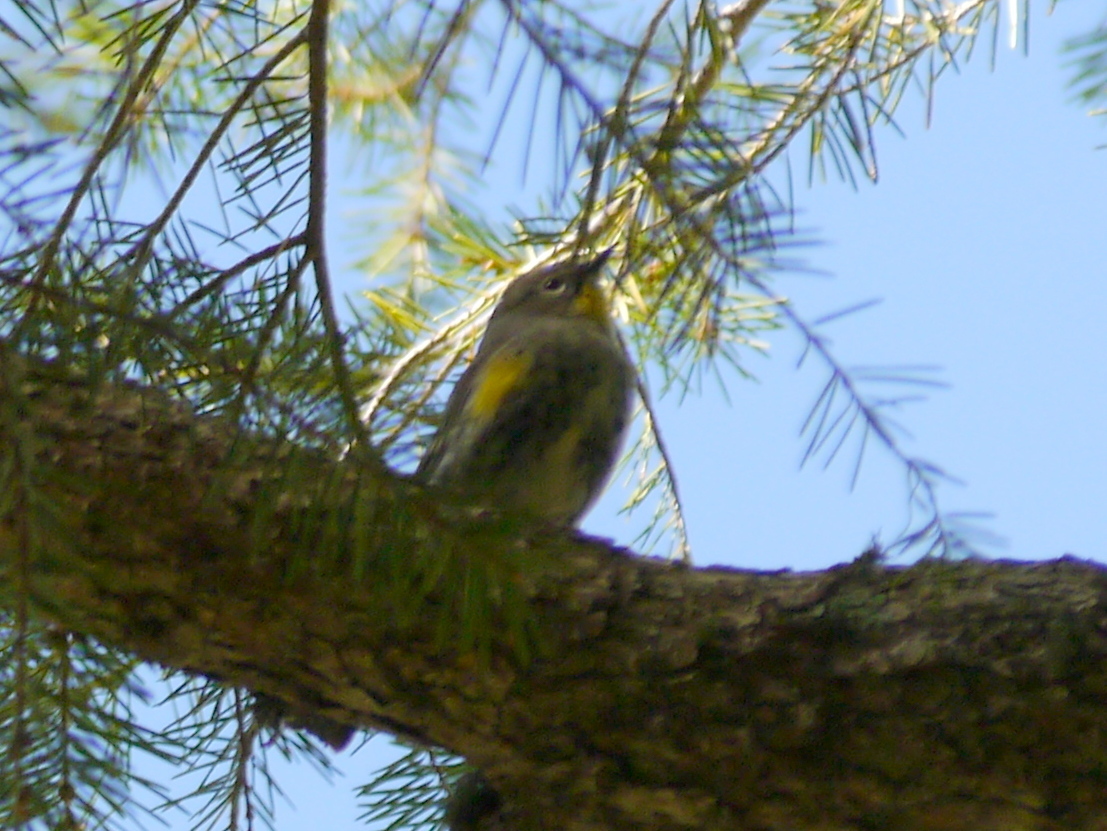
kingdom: Animalia
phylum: Chordata
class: Aves
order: Passeriformes
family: Parulidae
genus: Setophaga
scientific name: Setophaga auduboni
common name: Audubon's warbler
